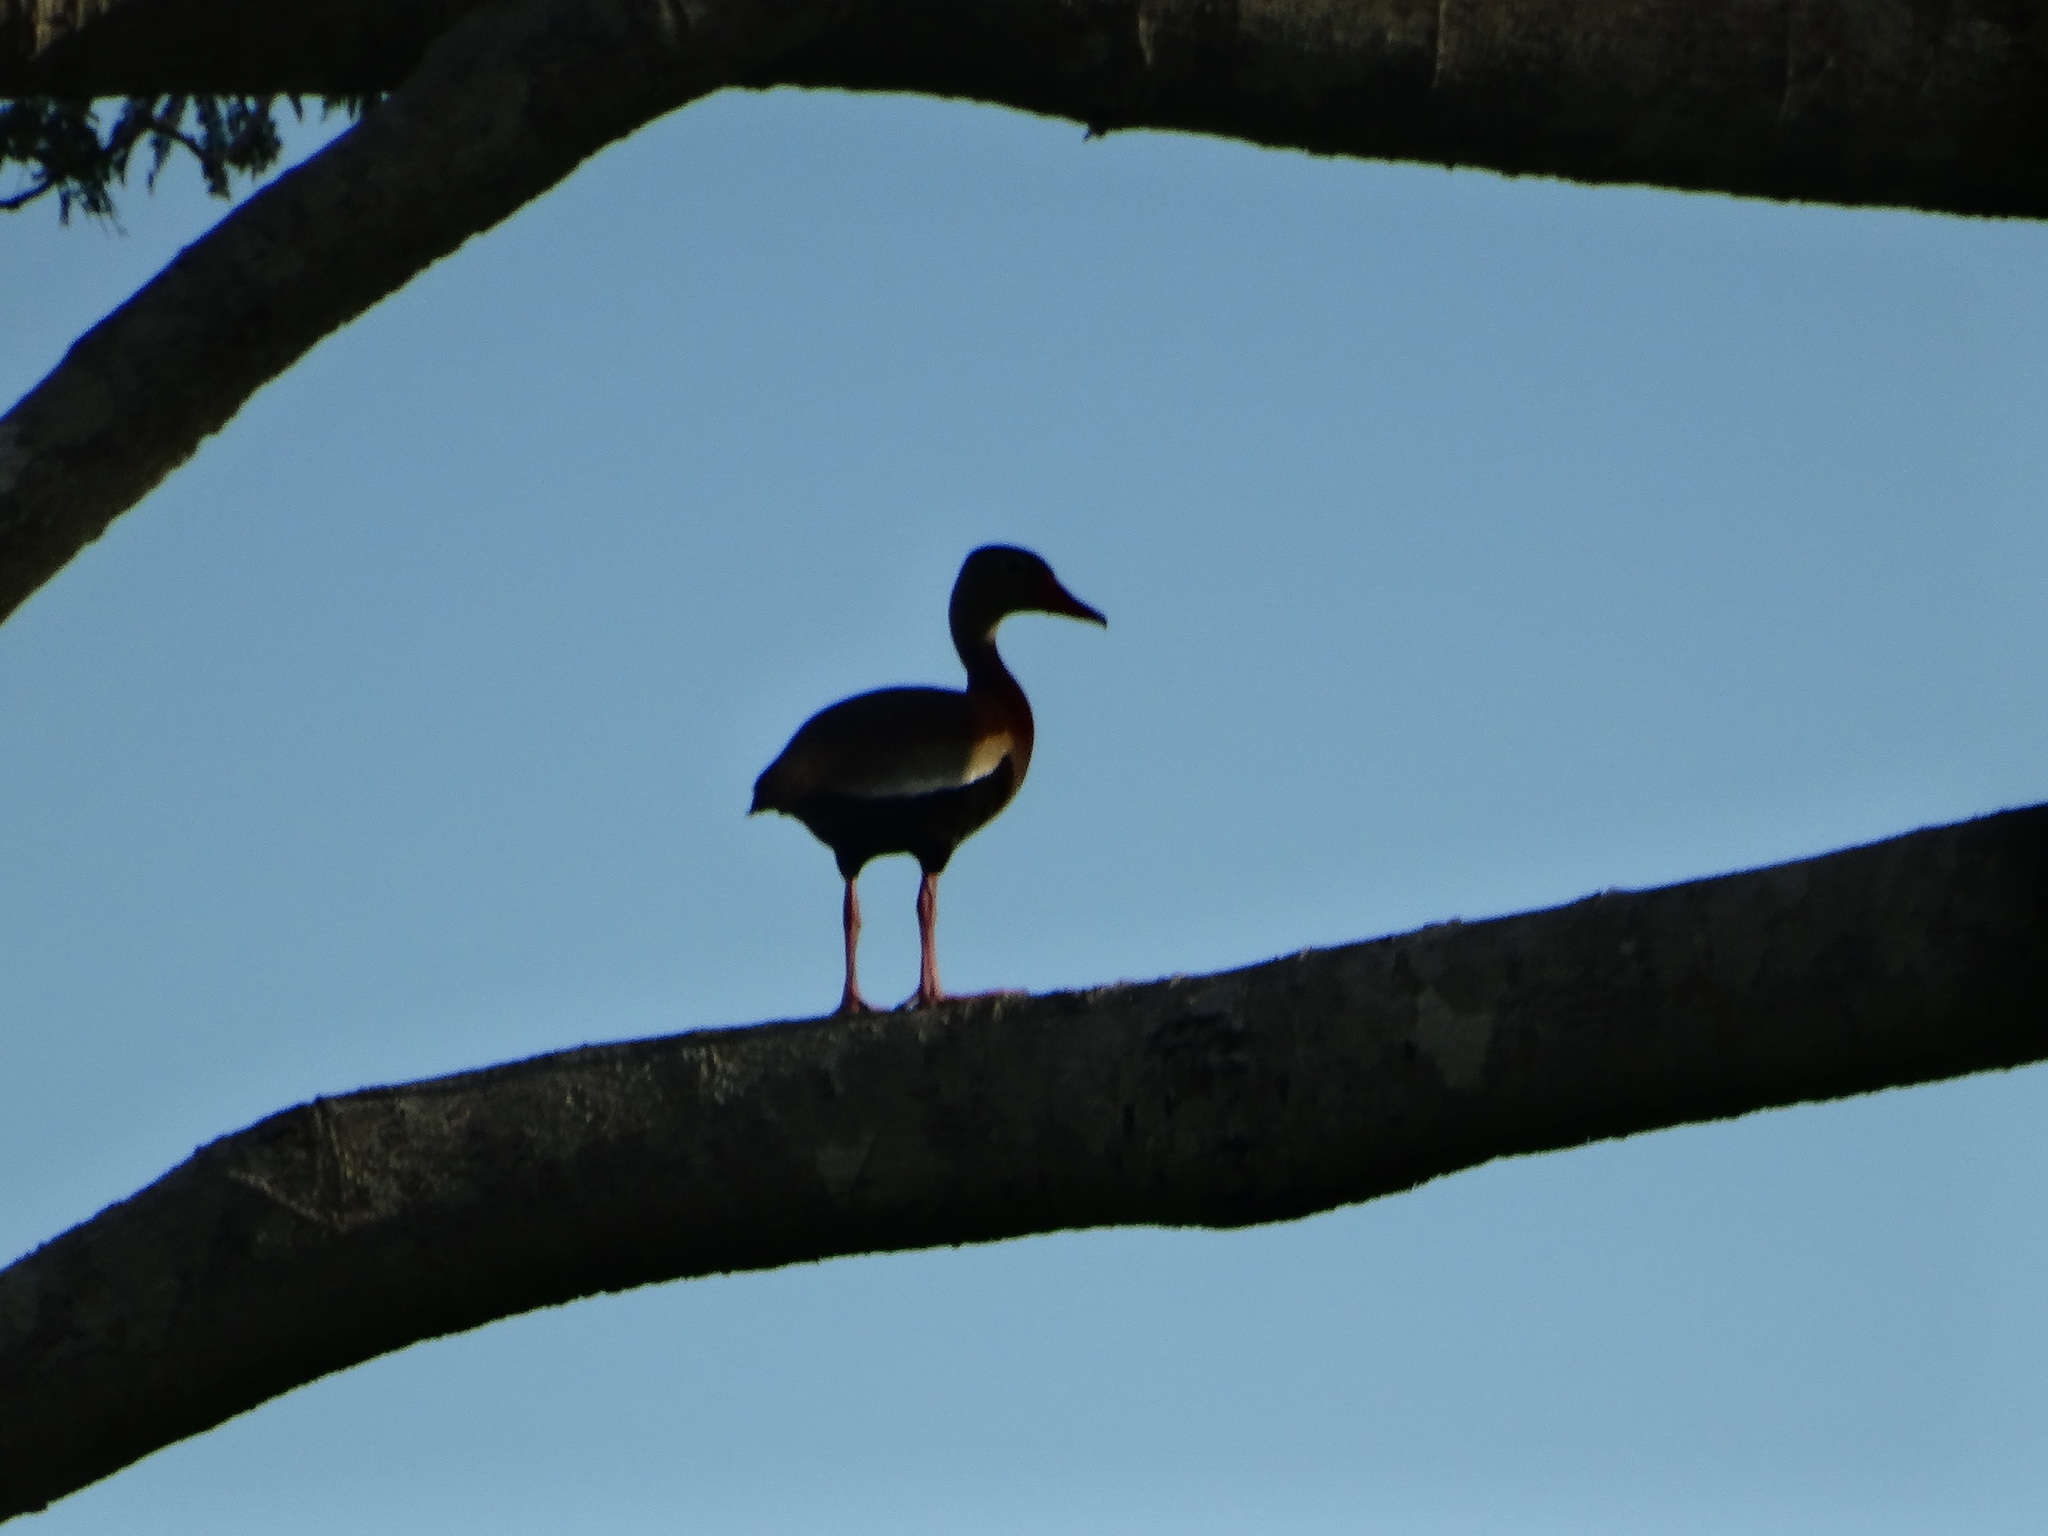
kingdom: Animalia
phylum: Chordata
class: Aves
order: Anseriformes
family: Anatidae
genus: Dendrocygna
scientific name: Dendrocygna autumnalis
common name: Black-bellied whistling duck
